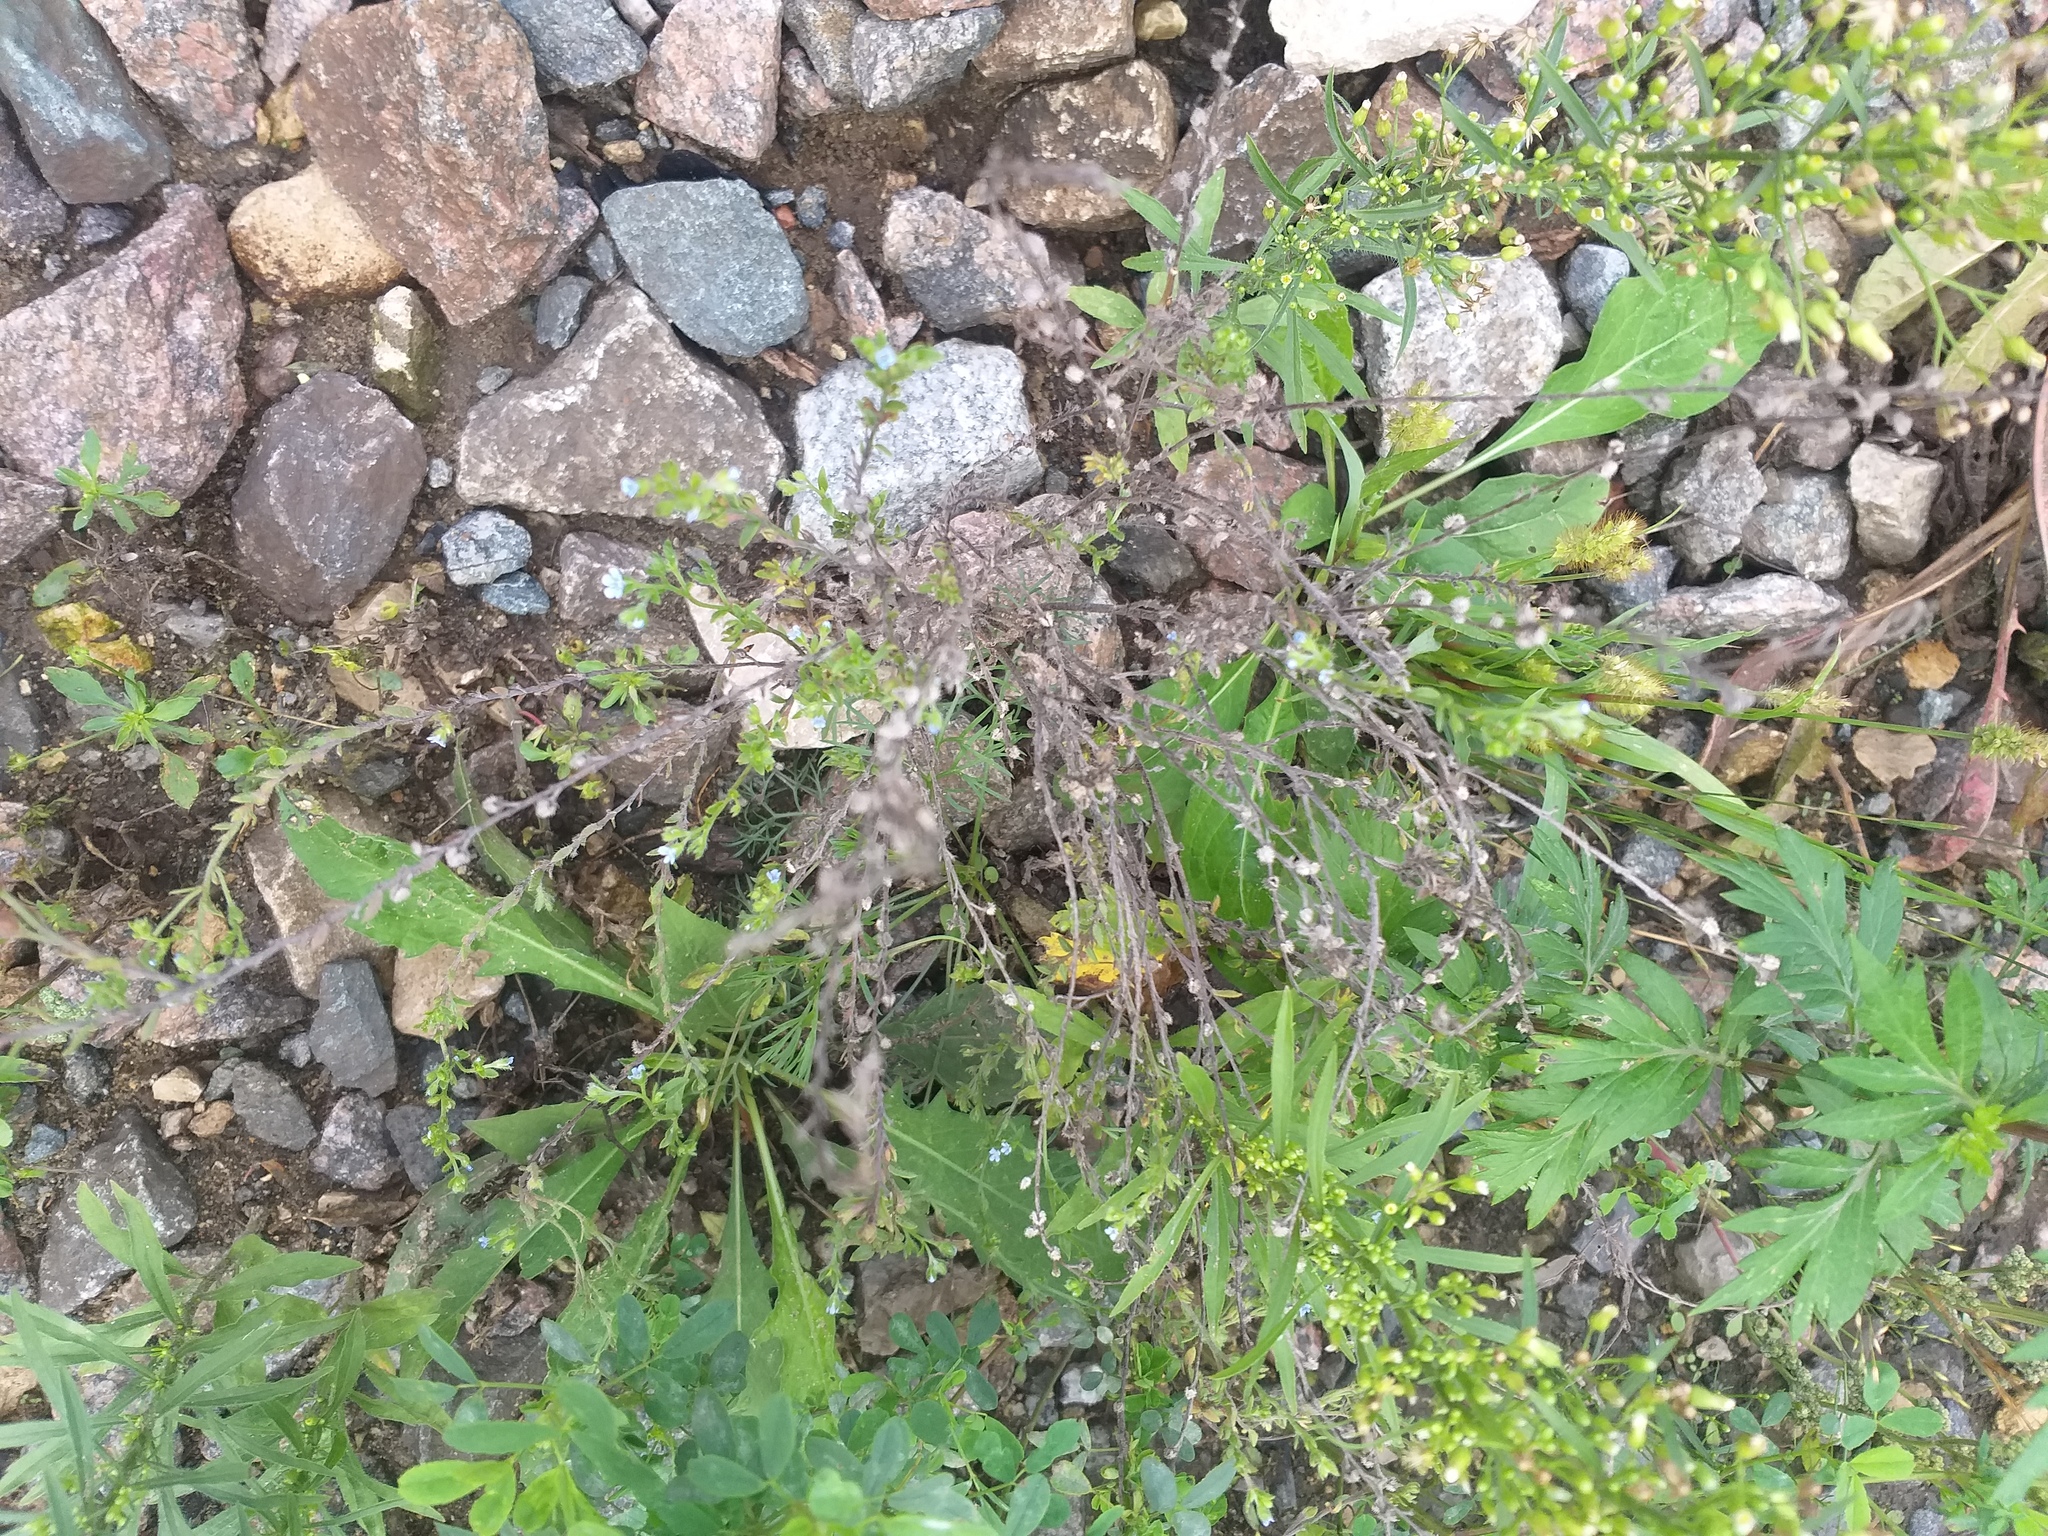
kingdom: Plantae
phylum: Tracheophyta
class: Magnoliopsida
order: Boraginales
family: Boraginaceae
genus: Lappula
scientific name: Lappula squarrosa
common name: European stickseed
